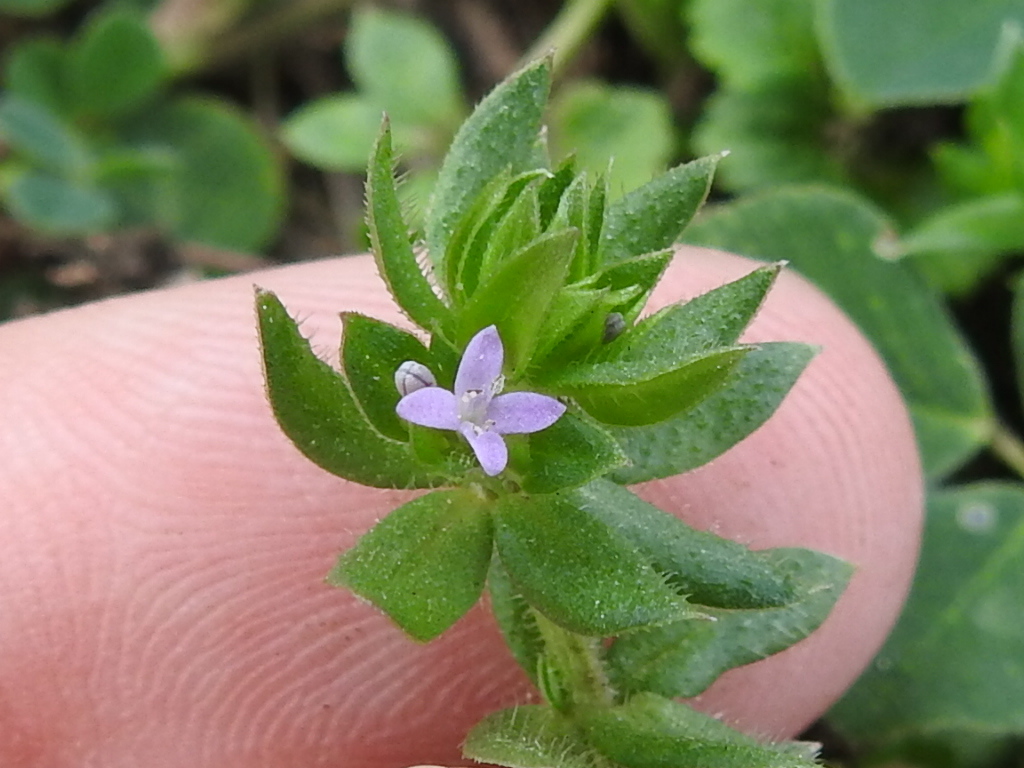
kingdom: Plantae
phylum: Tracheophyta
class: Magnoliopsida
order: Gentianales
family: Rubiaceae
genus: Sherardia
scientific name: Sherardia arvensis
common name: Field madder
